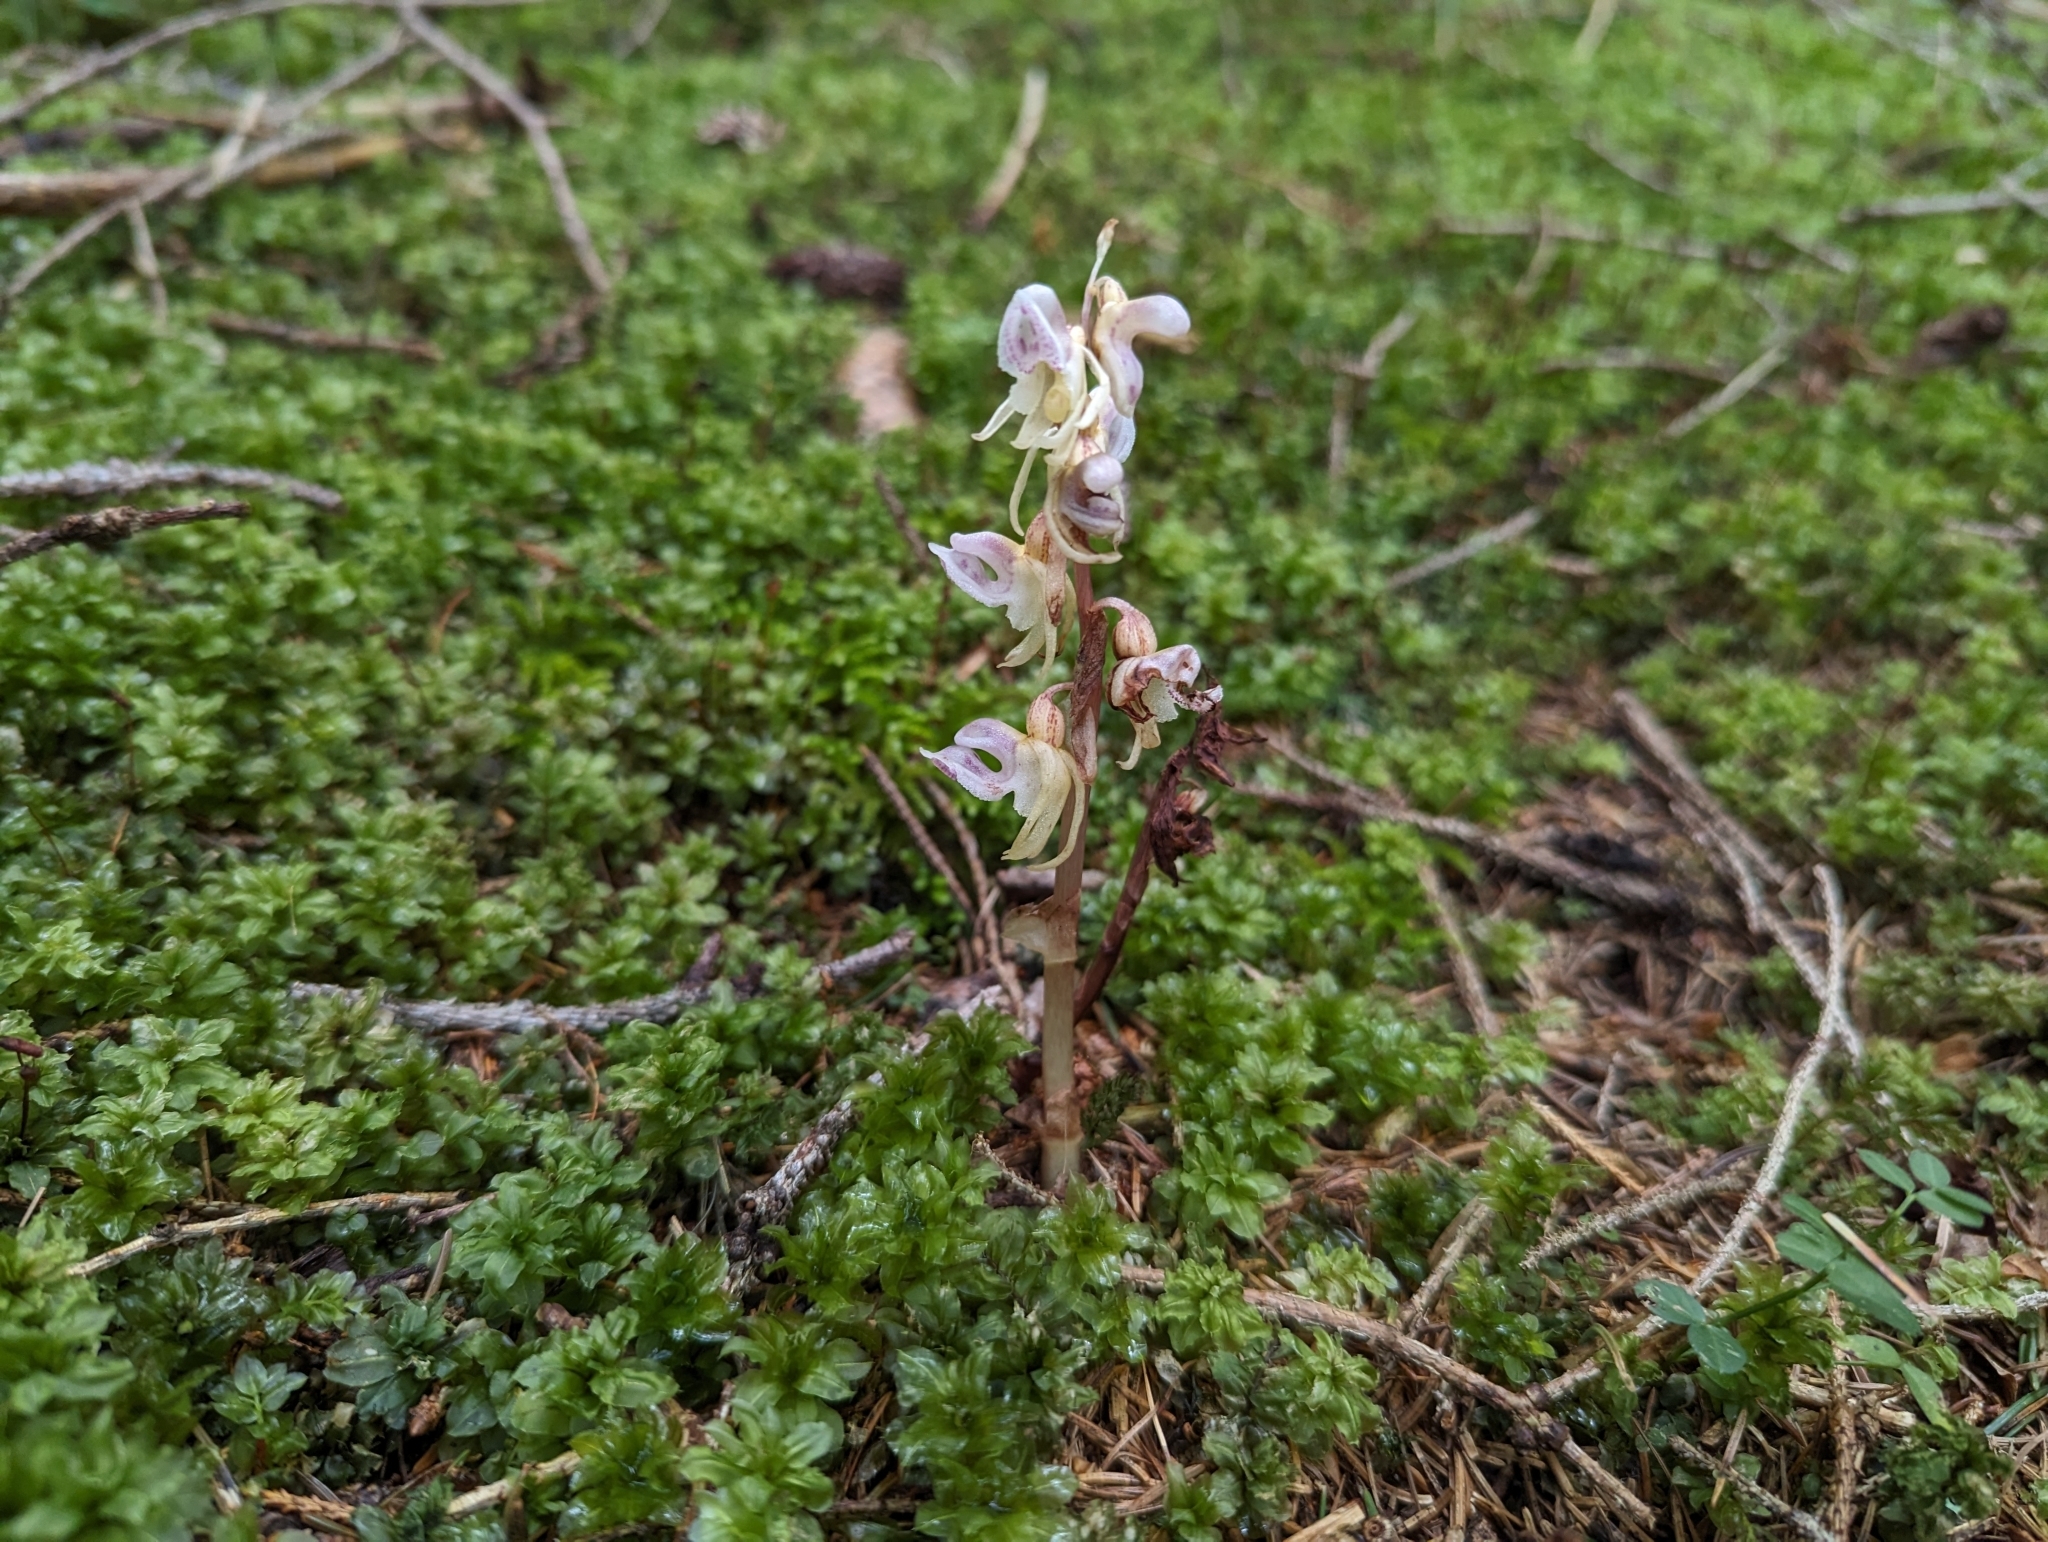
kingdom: Plantae
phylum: Tracheophyta
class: Liliopsida
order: Asparagales
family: Orchidaceae
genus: Epipogium
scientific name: Epipogium aphyllum
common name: Ghost orchid
